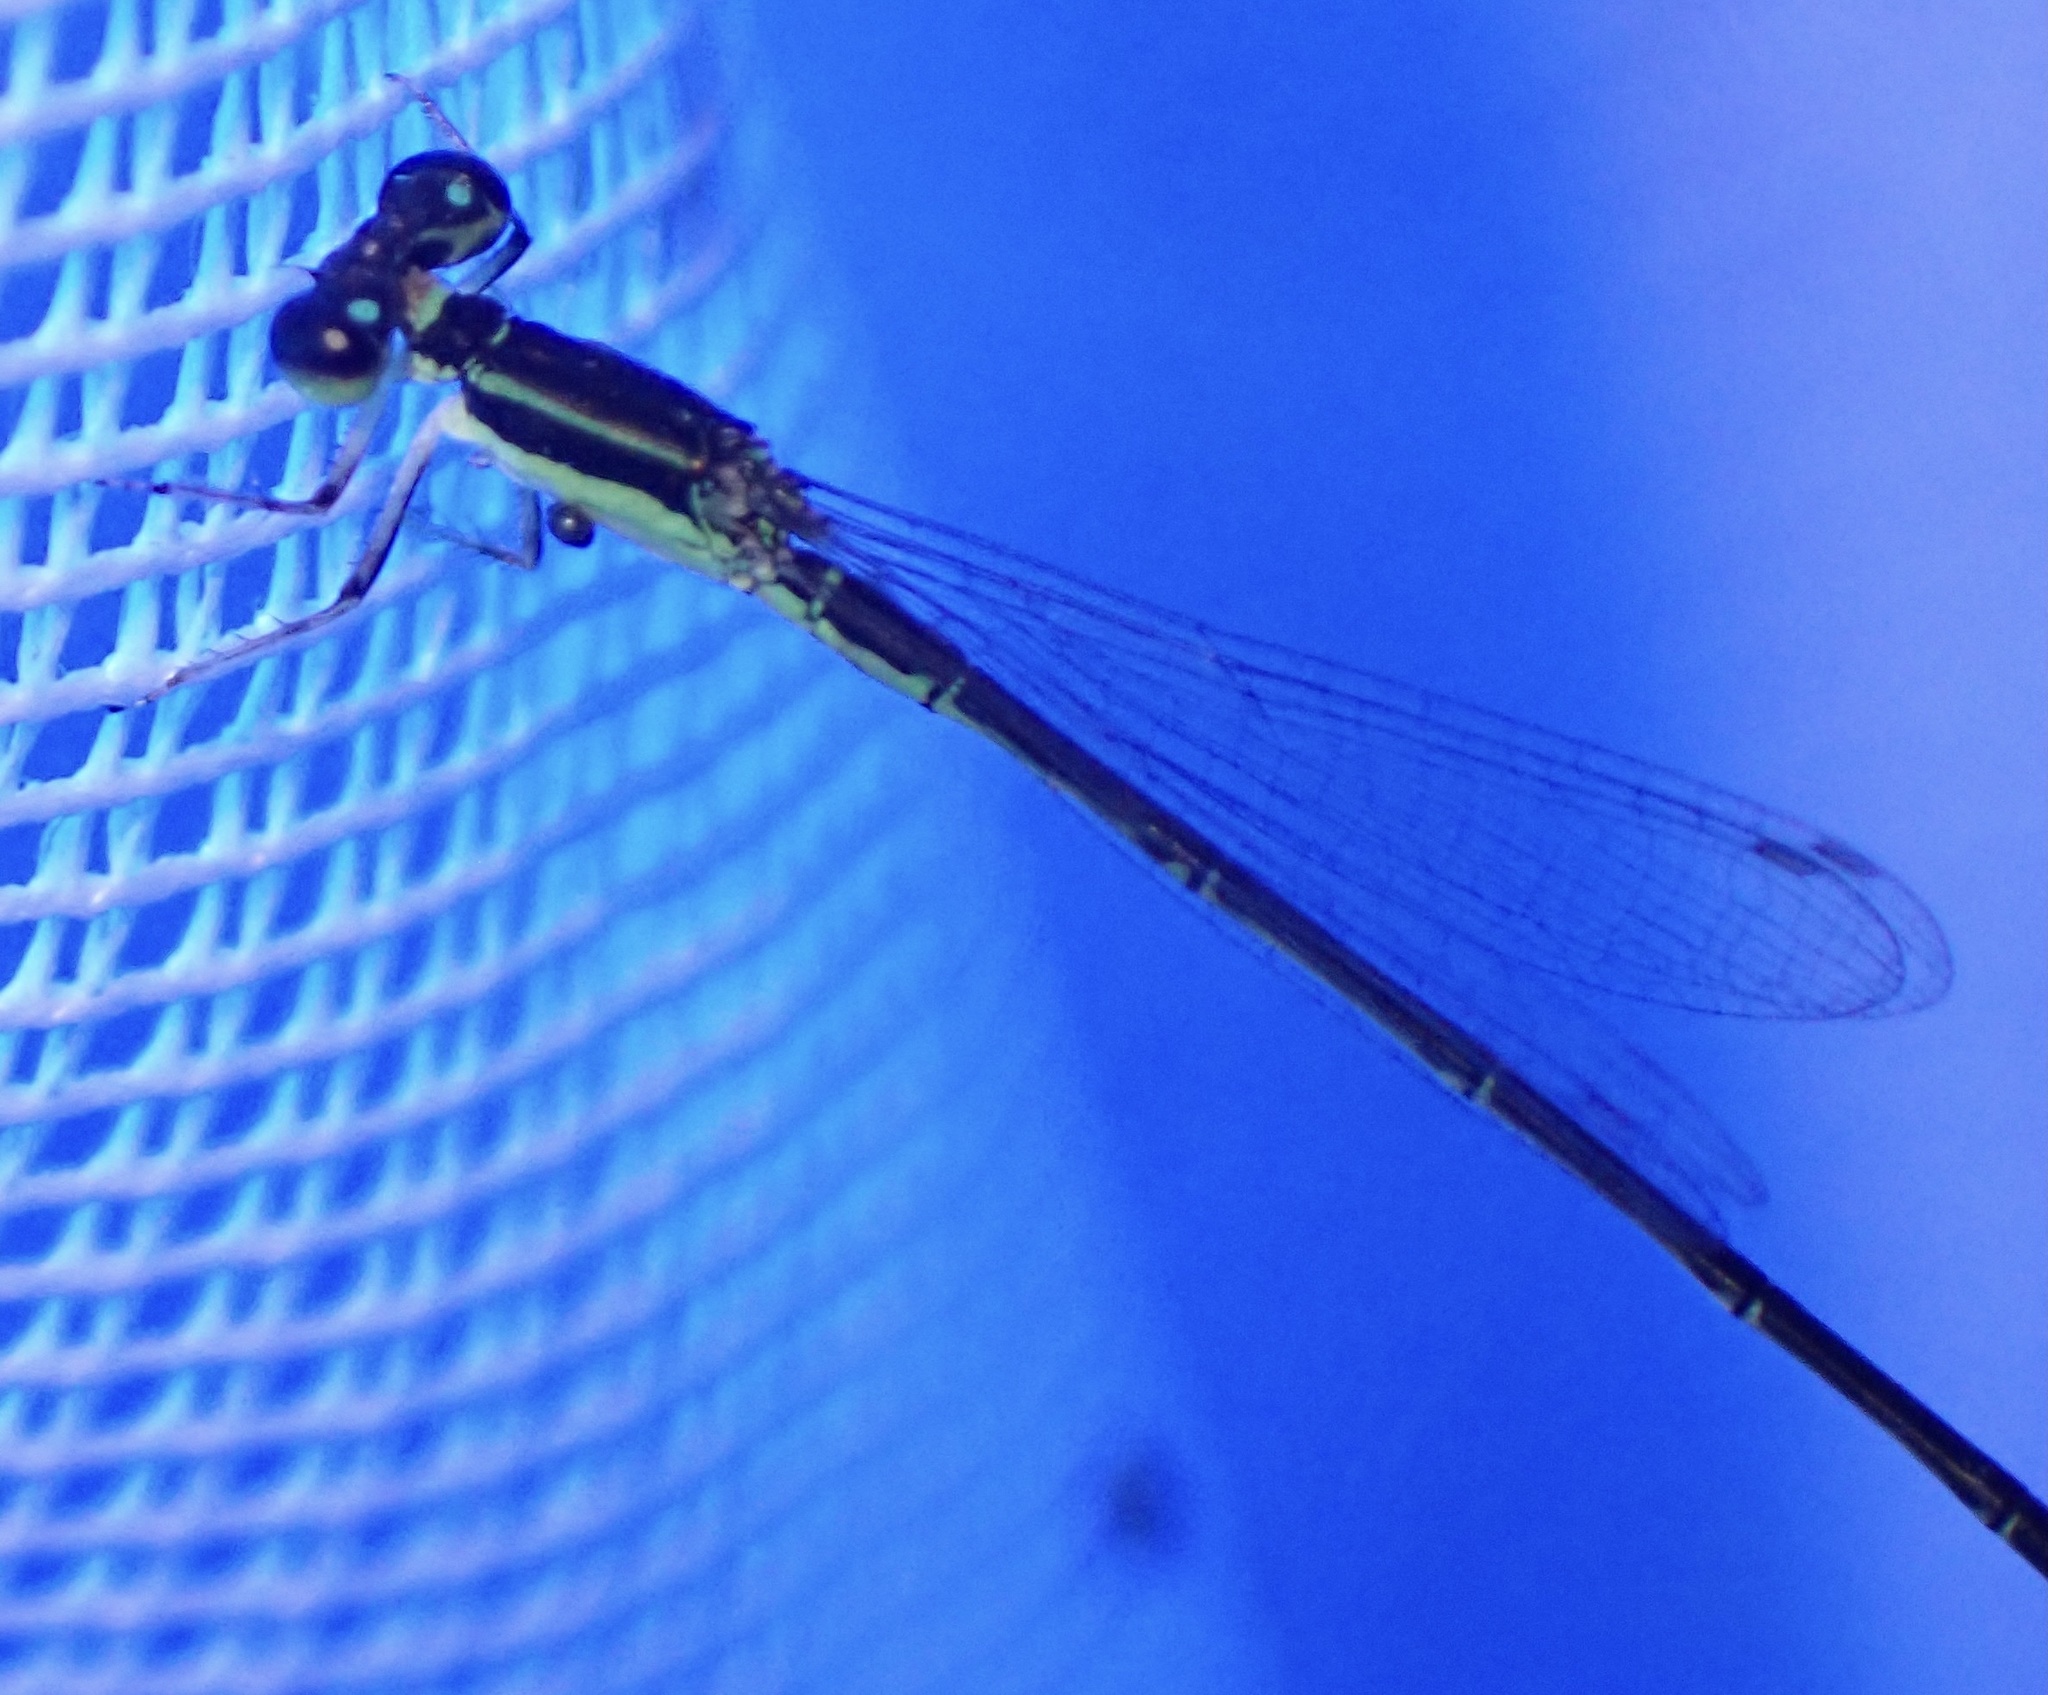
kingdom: Animalia
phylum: Arthropoda
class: Insecta
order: Odonata
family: Coenagrionidae
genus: Agriocnemis
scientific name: Agriocnemis exilis
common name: Little wisp
